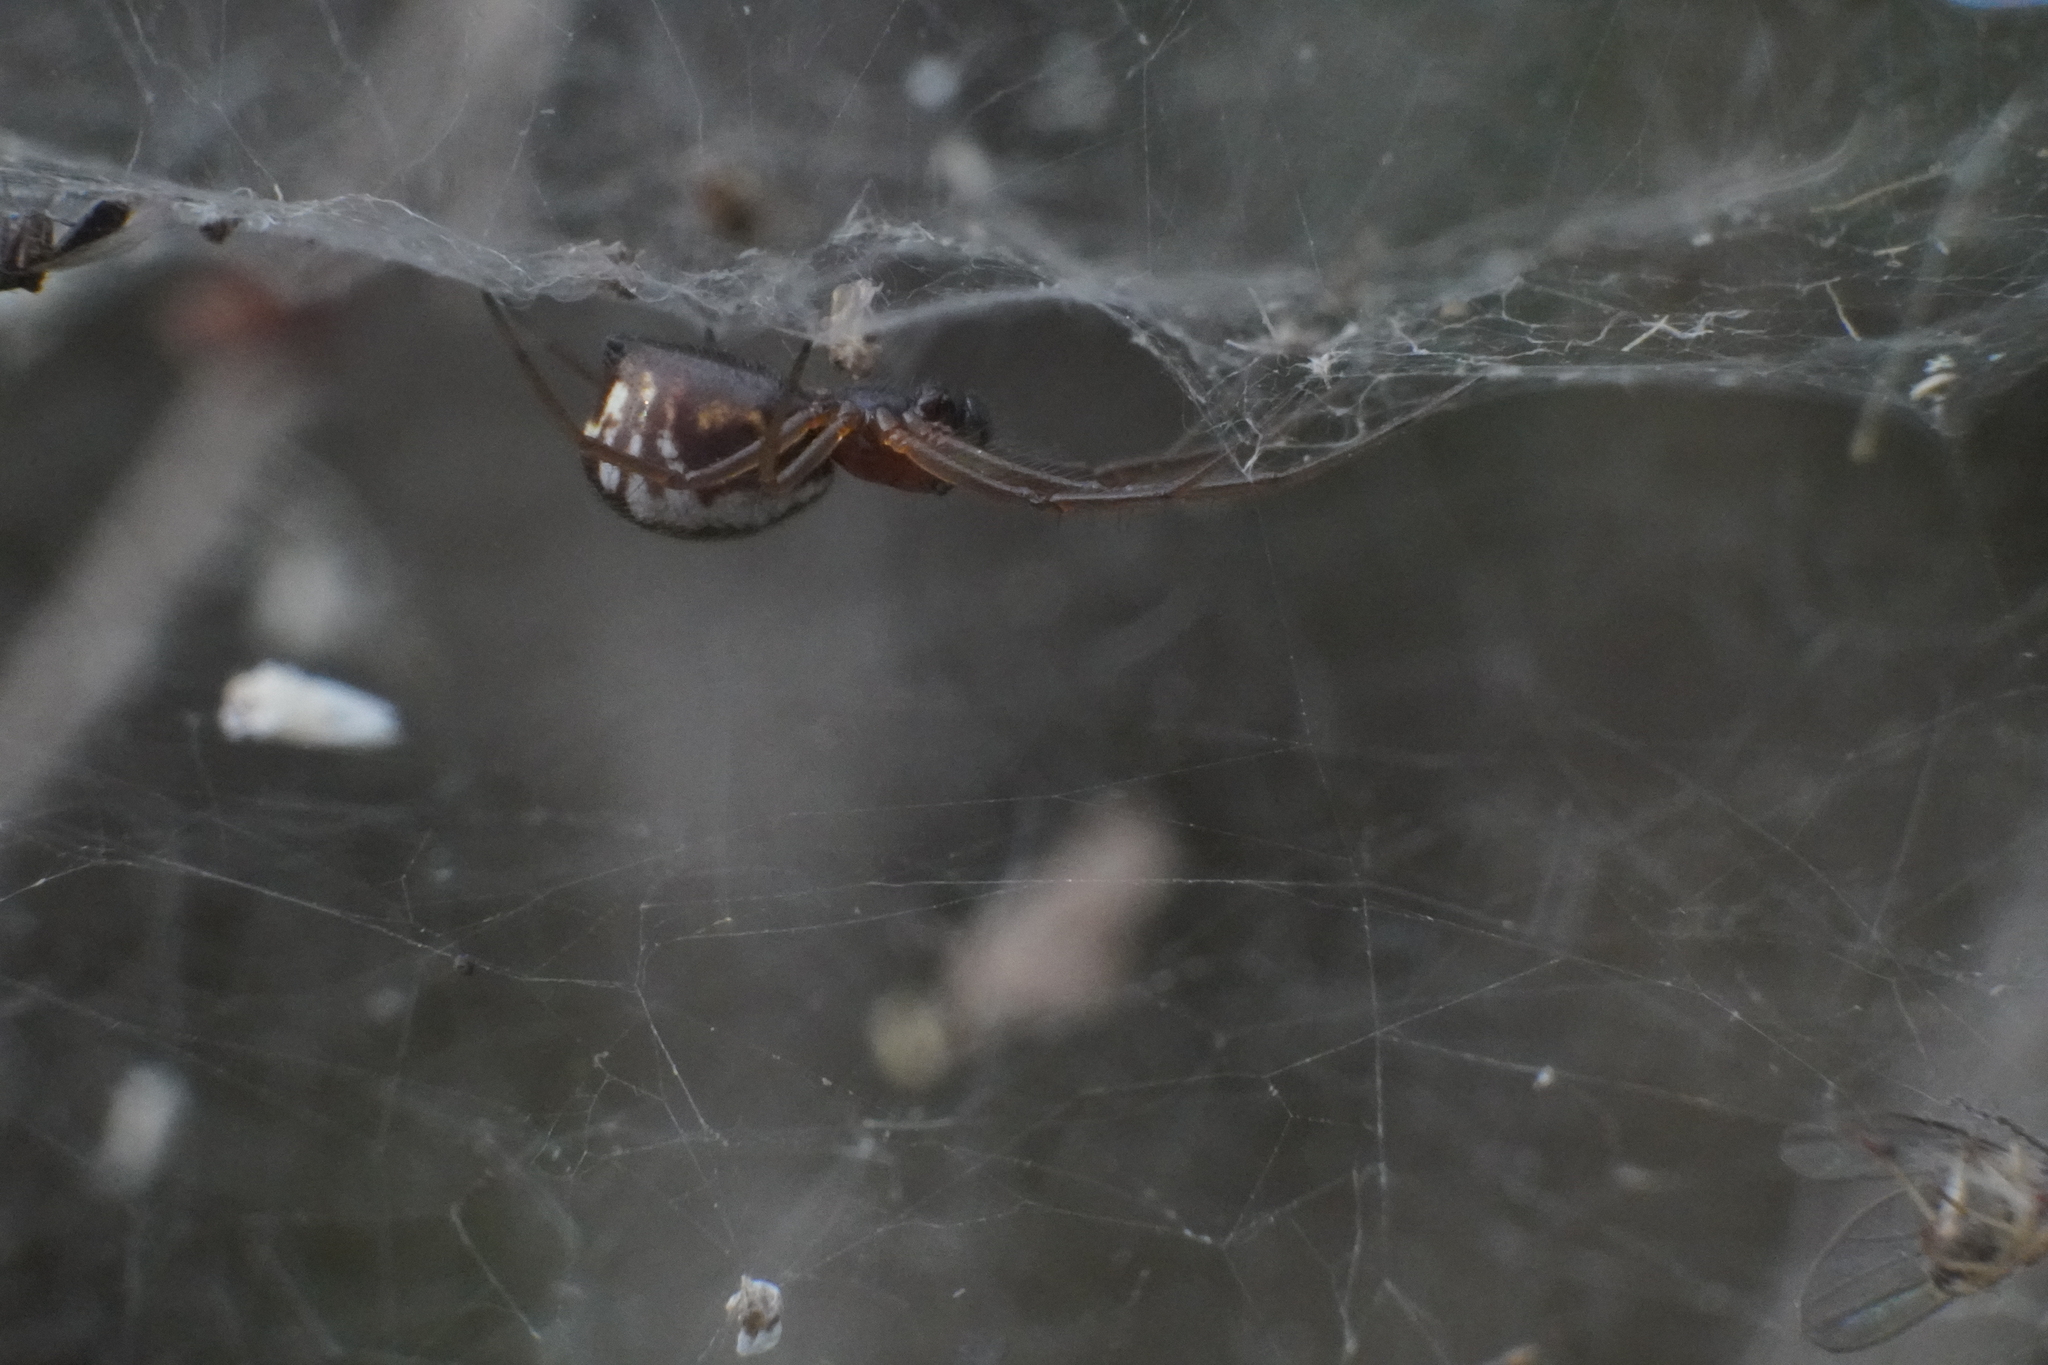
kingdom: Animalia
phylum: Arthropoda
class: Arachnida
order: Araneae
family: Linyphiidae
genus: Frontinella
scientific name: Frontinella pyramitela
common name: Bowl-and-doily spider
